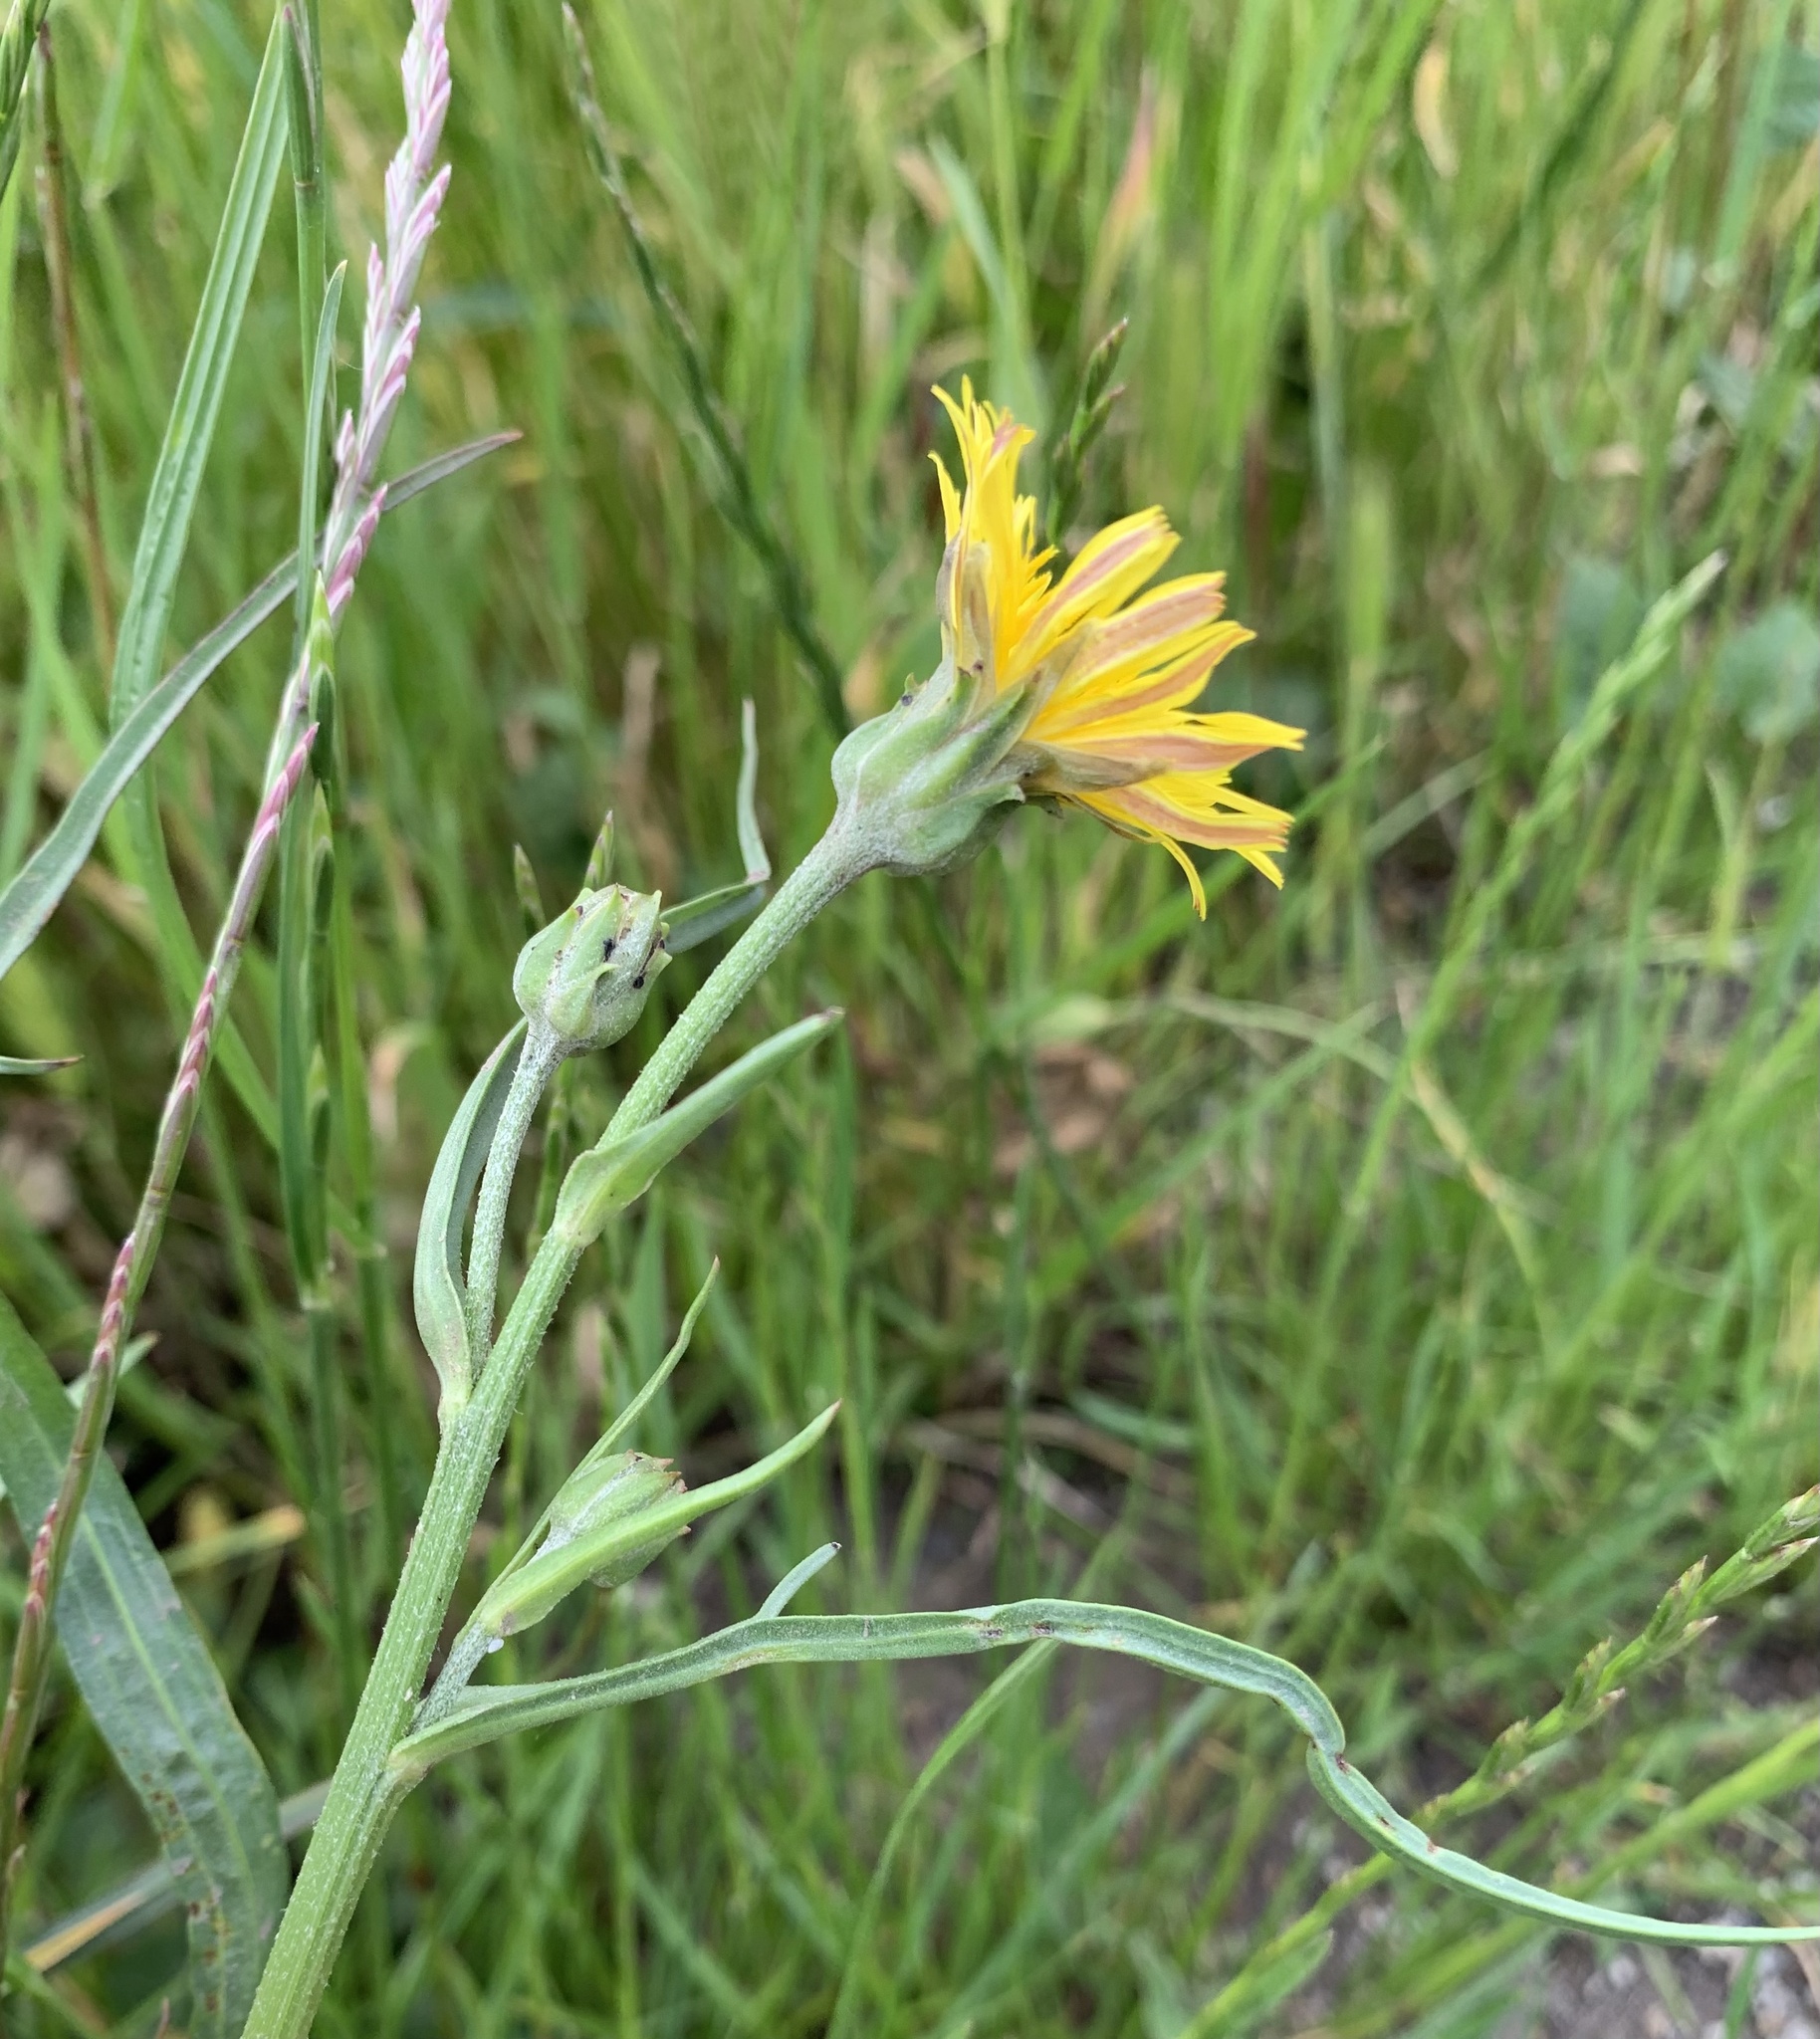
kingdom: Plantae
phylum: Tracheophyta
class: Magnoliopsida
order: Asterales
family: Asteraceae
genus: Scorzonera
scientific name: Scorzonera cana
